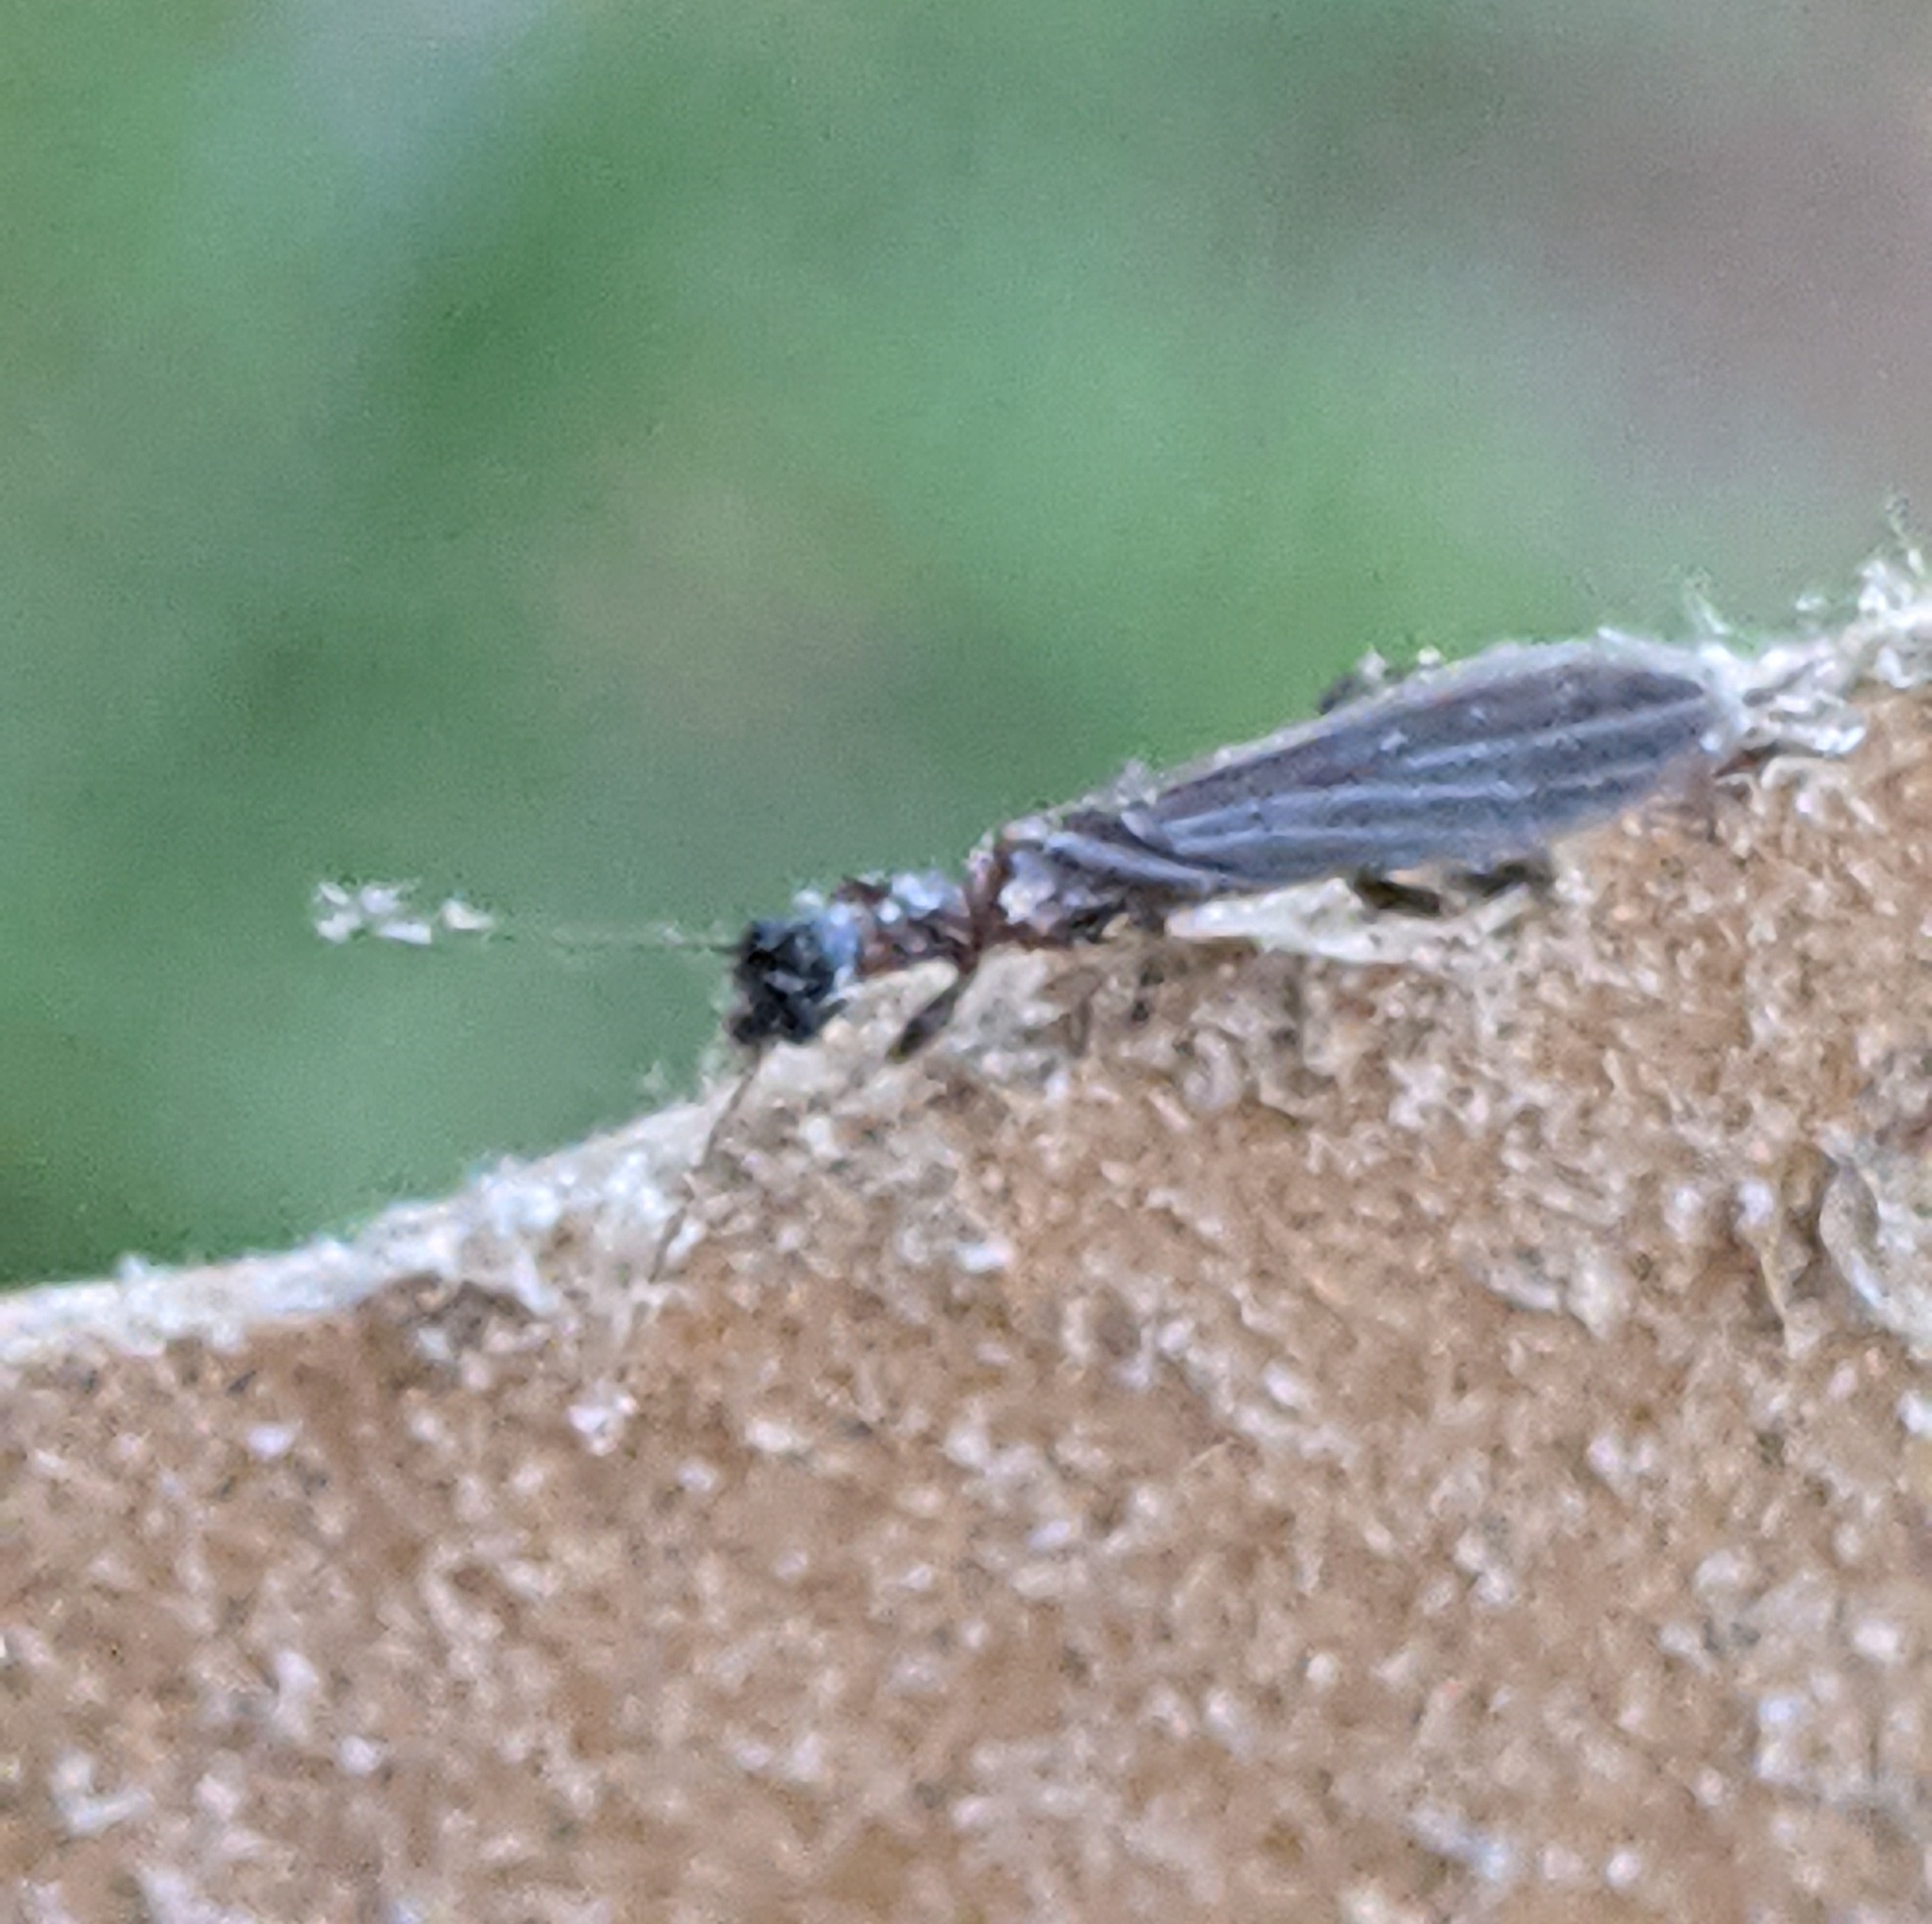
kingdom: Animalia
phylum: Arthropoda
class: Insecta
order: Embioptera
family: Oligotomidae
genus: Oligotoma
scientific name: Oligotoma nigra
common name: Black webspinner
